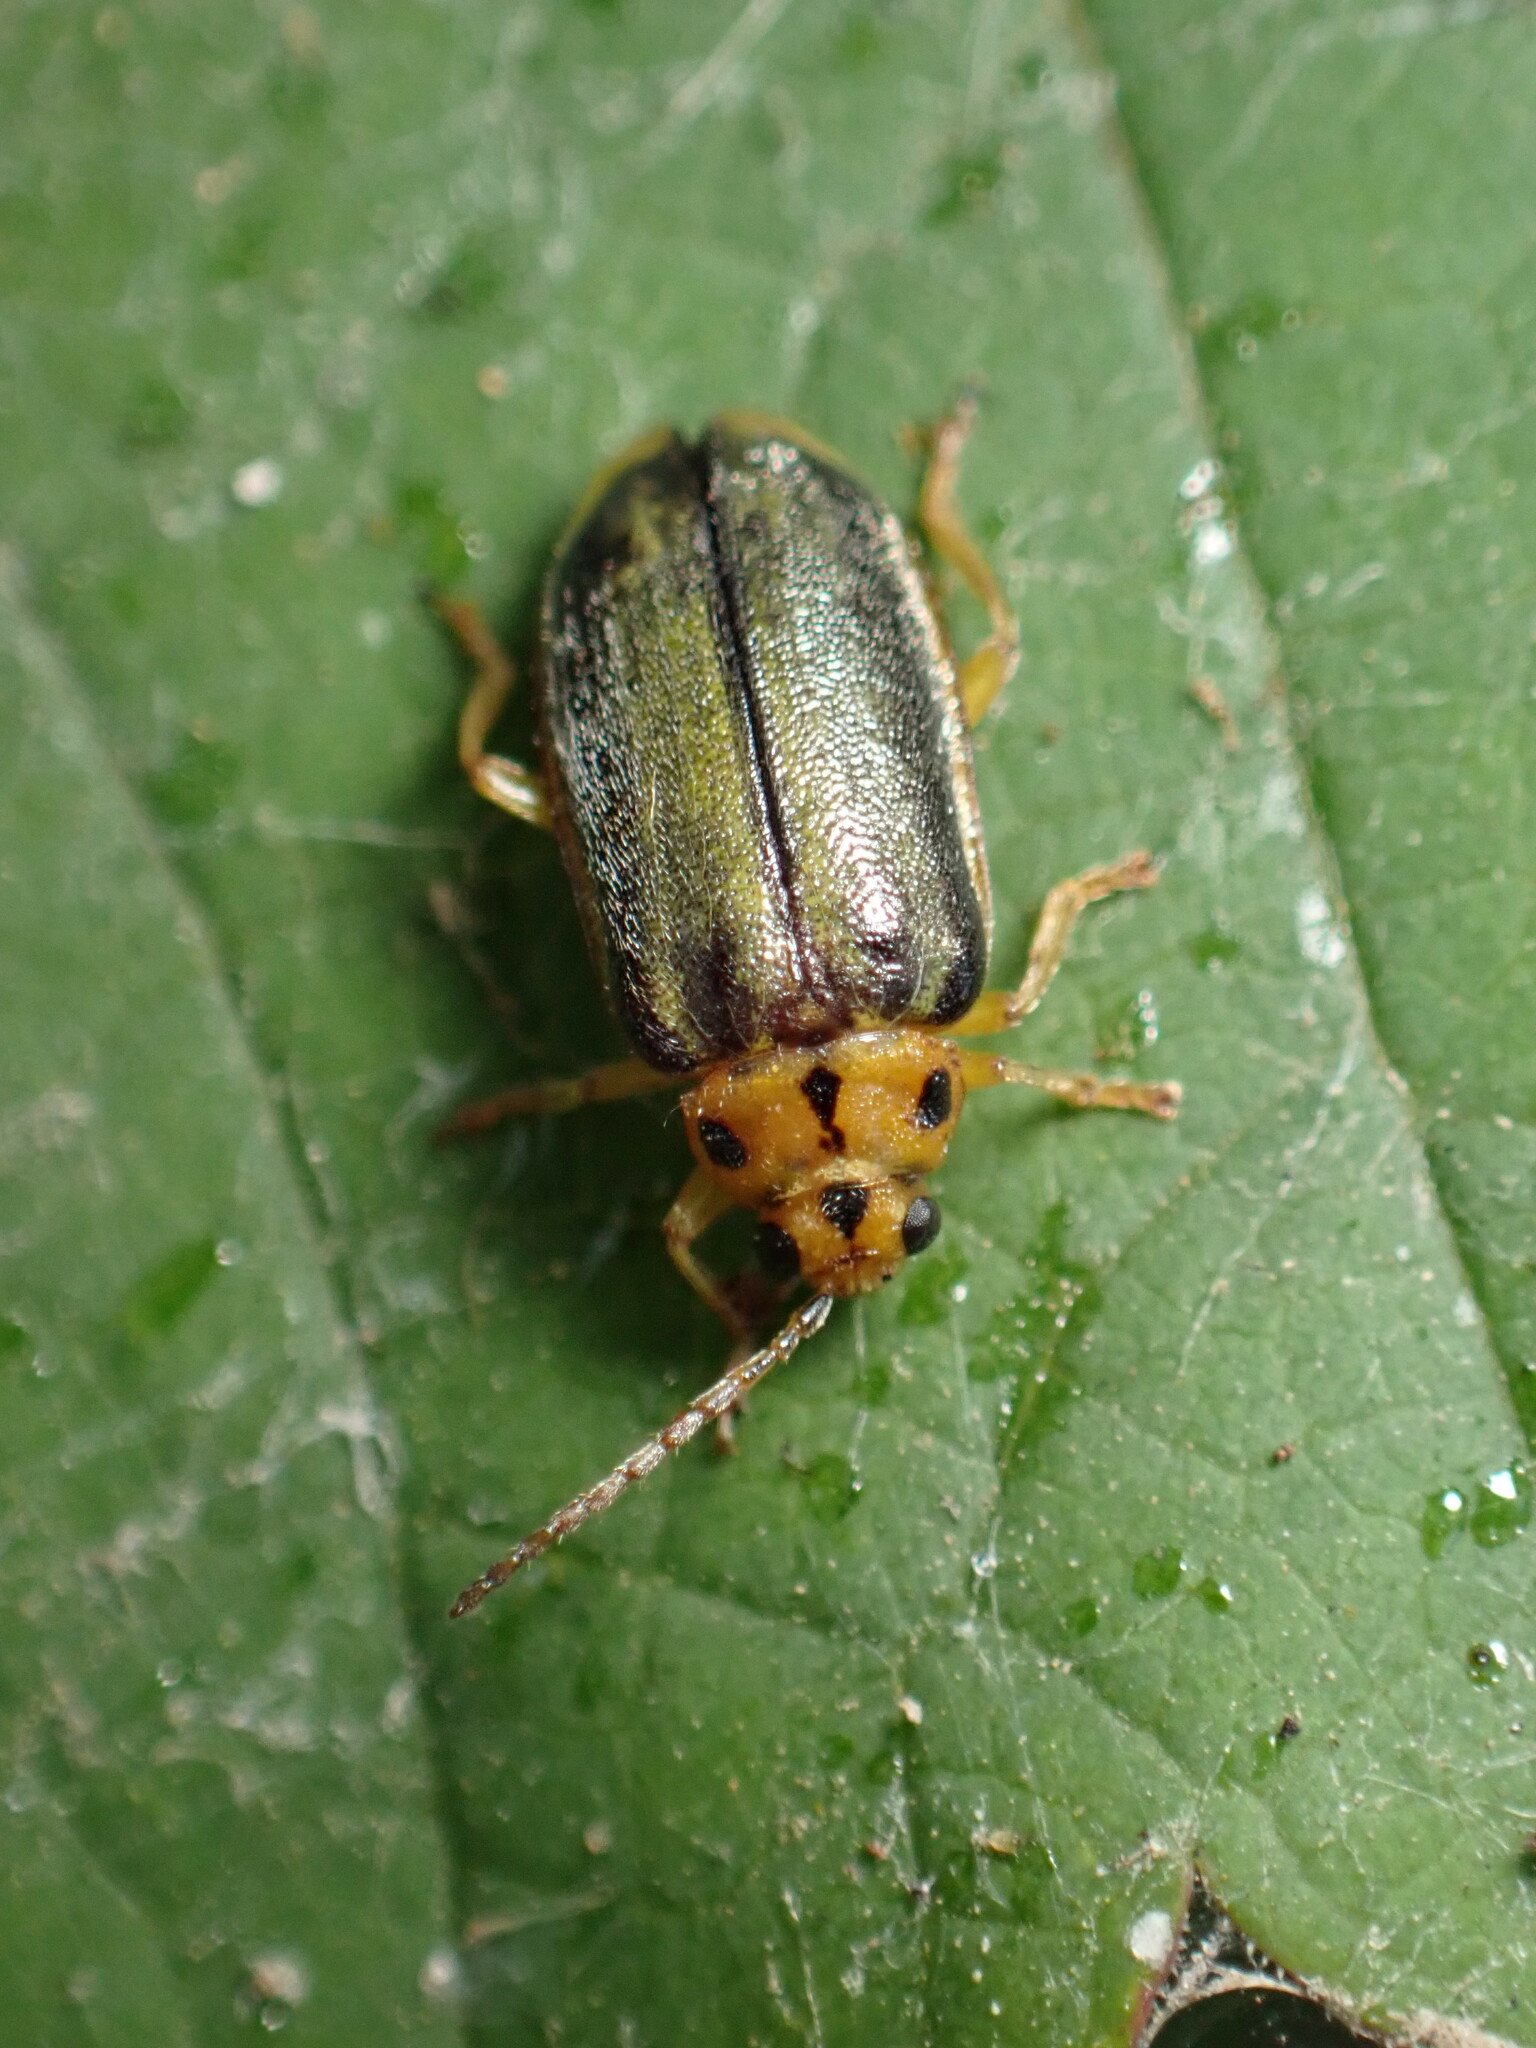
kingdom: Animalia
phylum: Arthropoda
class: Insecta
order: Coleoptera
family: Chrysomelidae
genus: Xanthogaleruca
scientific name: Xanthogaleruca luteola
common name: Elm leaf beetle
